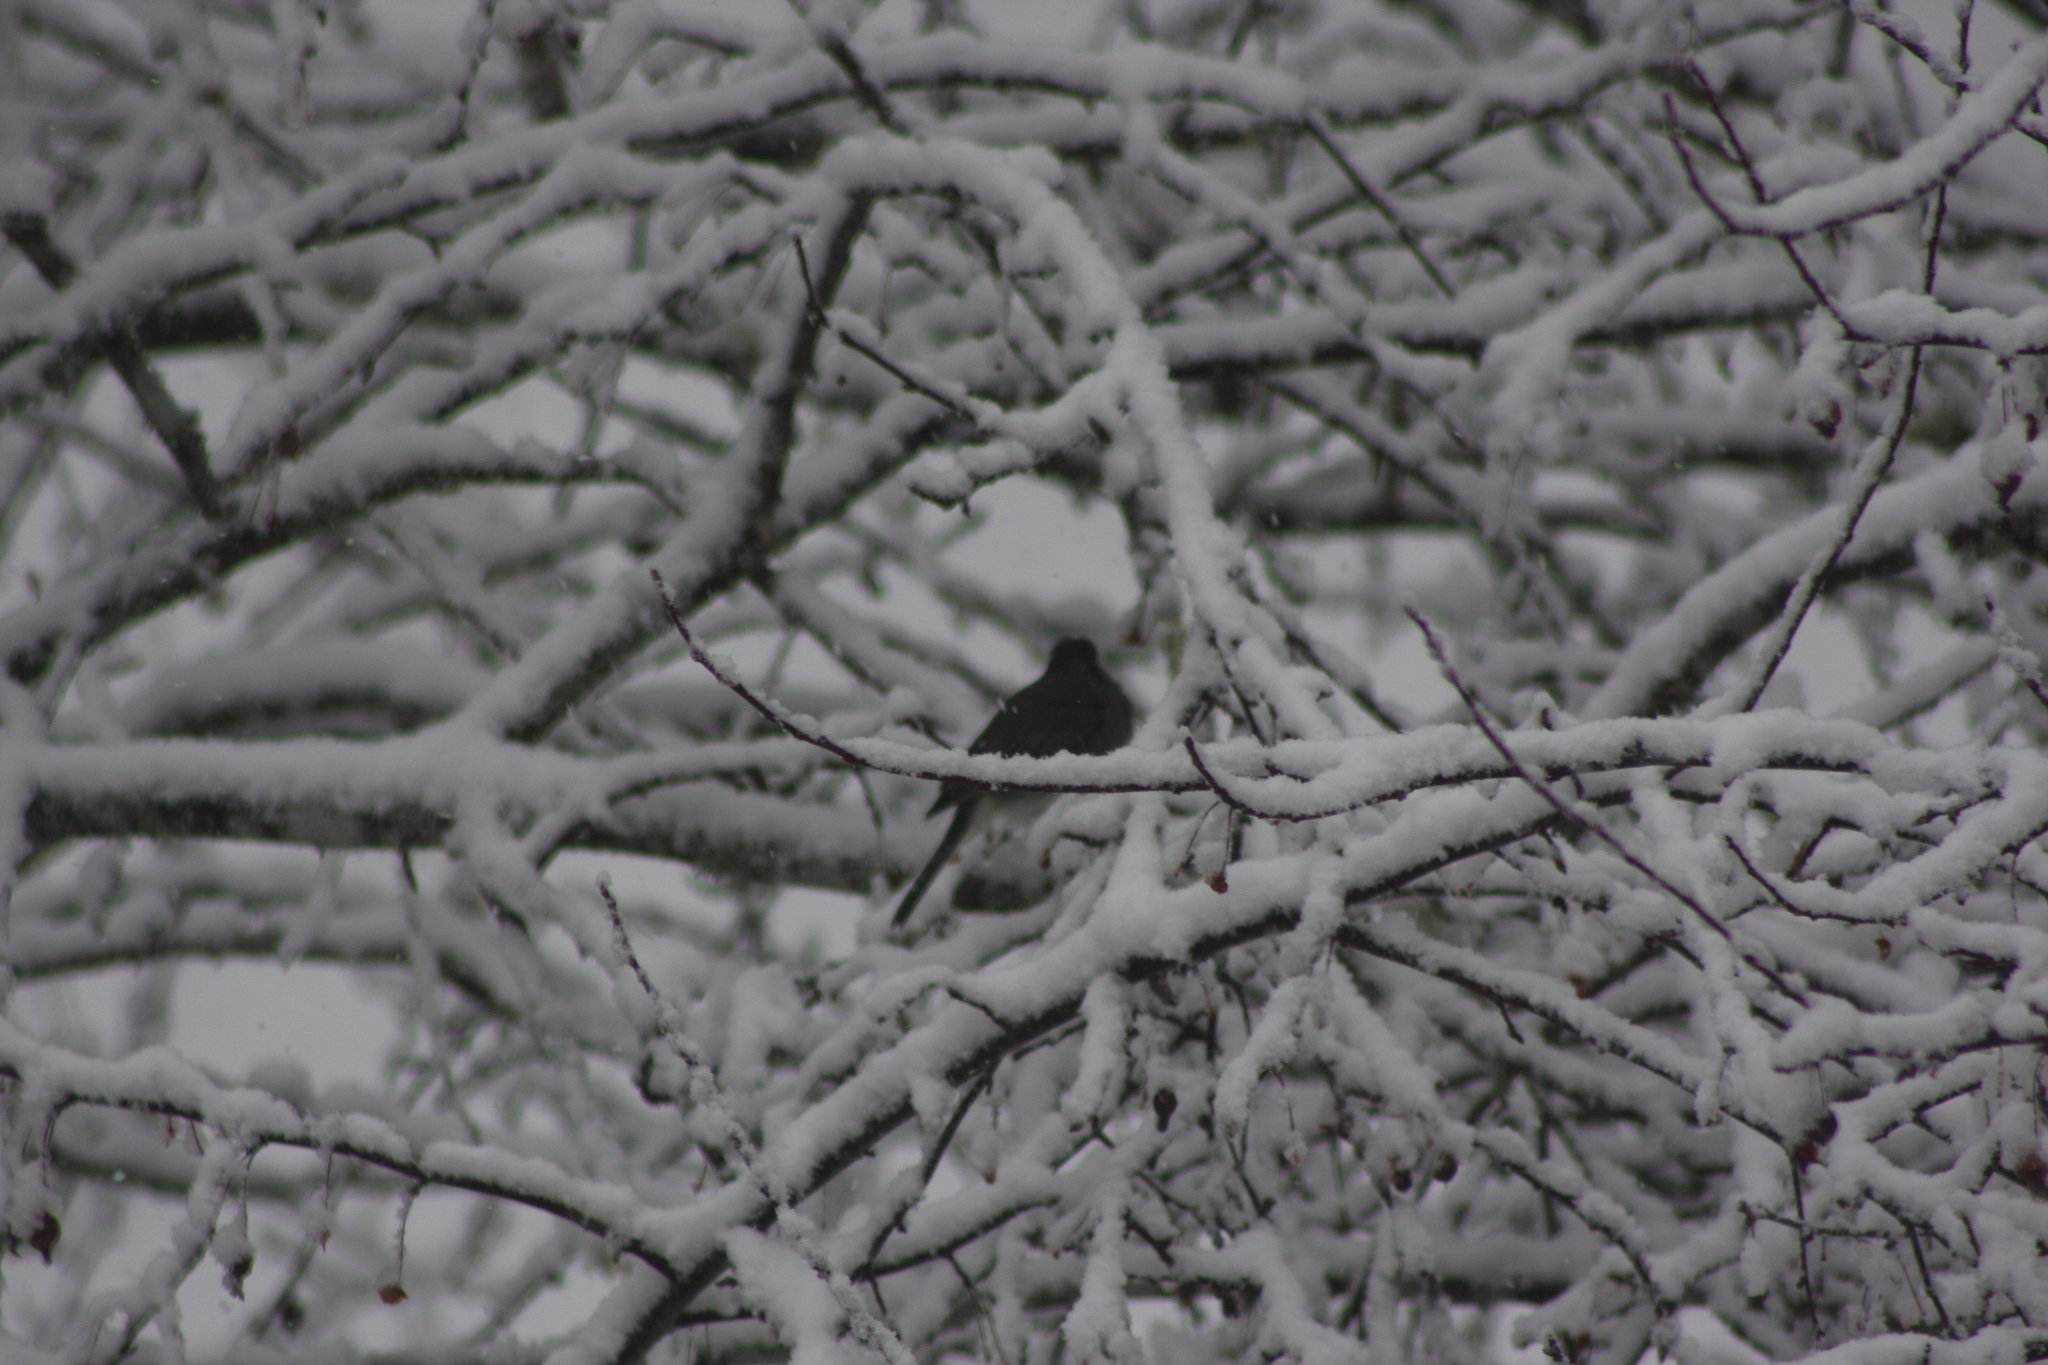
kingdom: Animalia
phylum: Chordata
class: Aves
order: Passeriformes
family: Passerellidae
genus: Junco
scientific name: Junco hyemalis
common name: Dark-eyed junco
